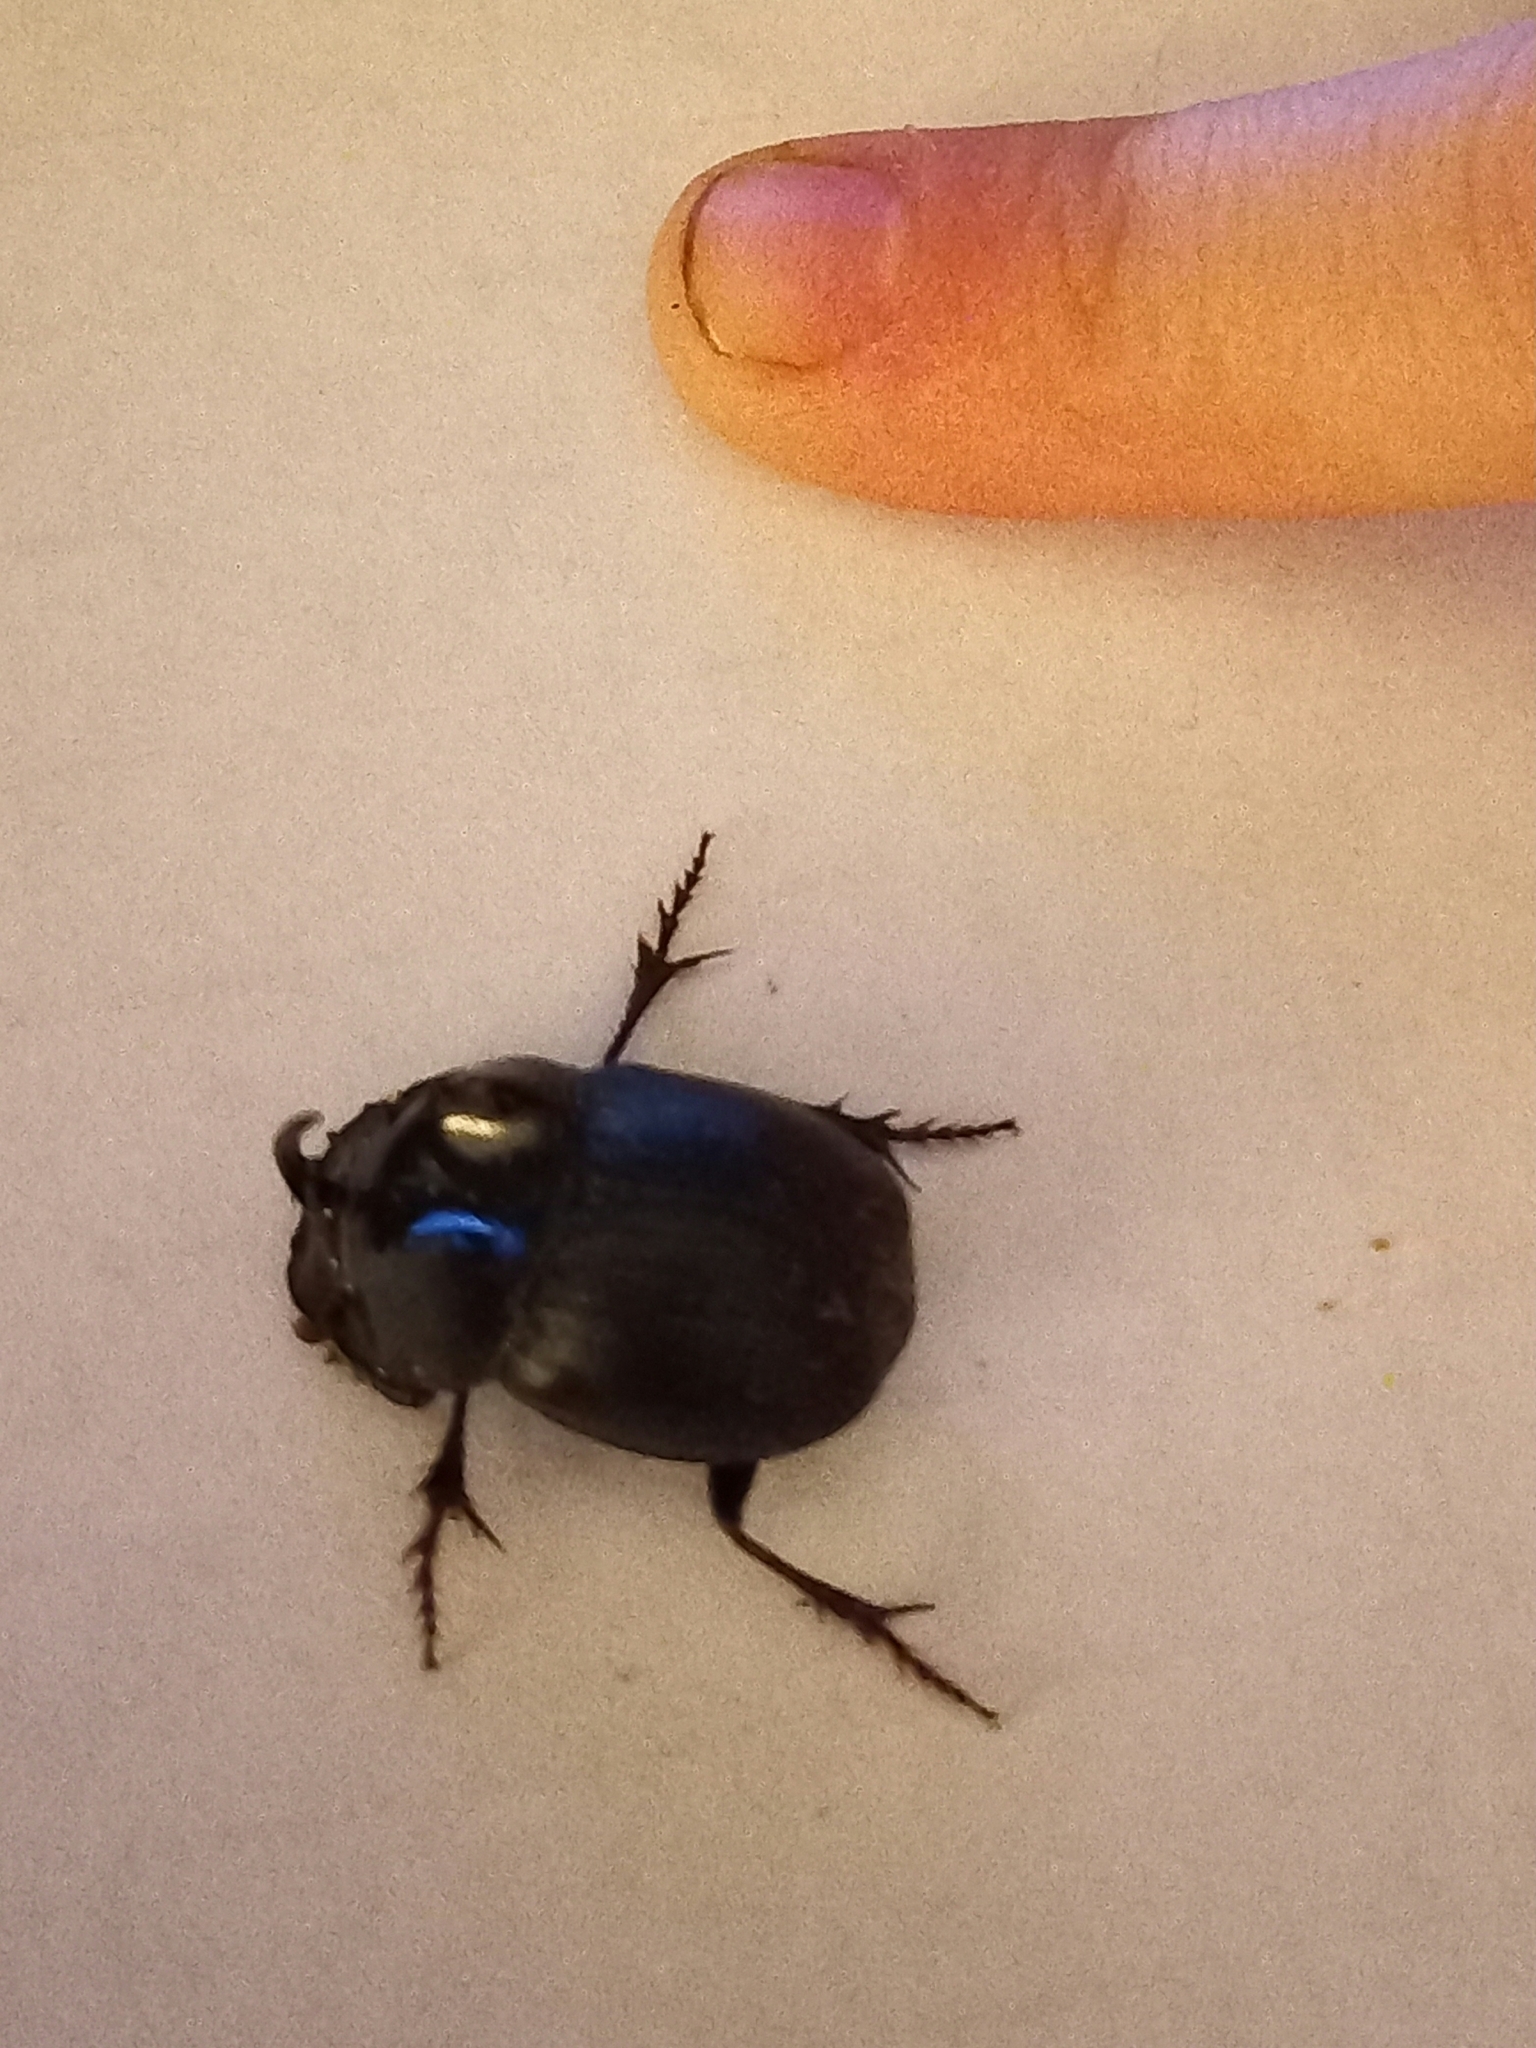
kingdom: Animalia
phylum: Arthropoda
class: Insecta
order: Coleoptera
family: Scarabaeidae
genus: Copris
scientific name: Copris mesacanthus
